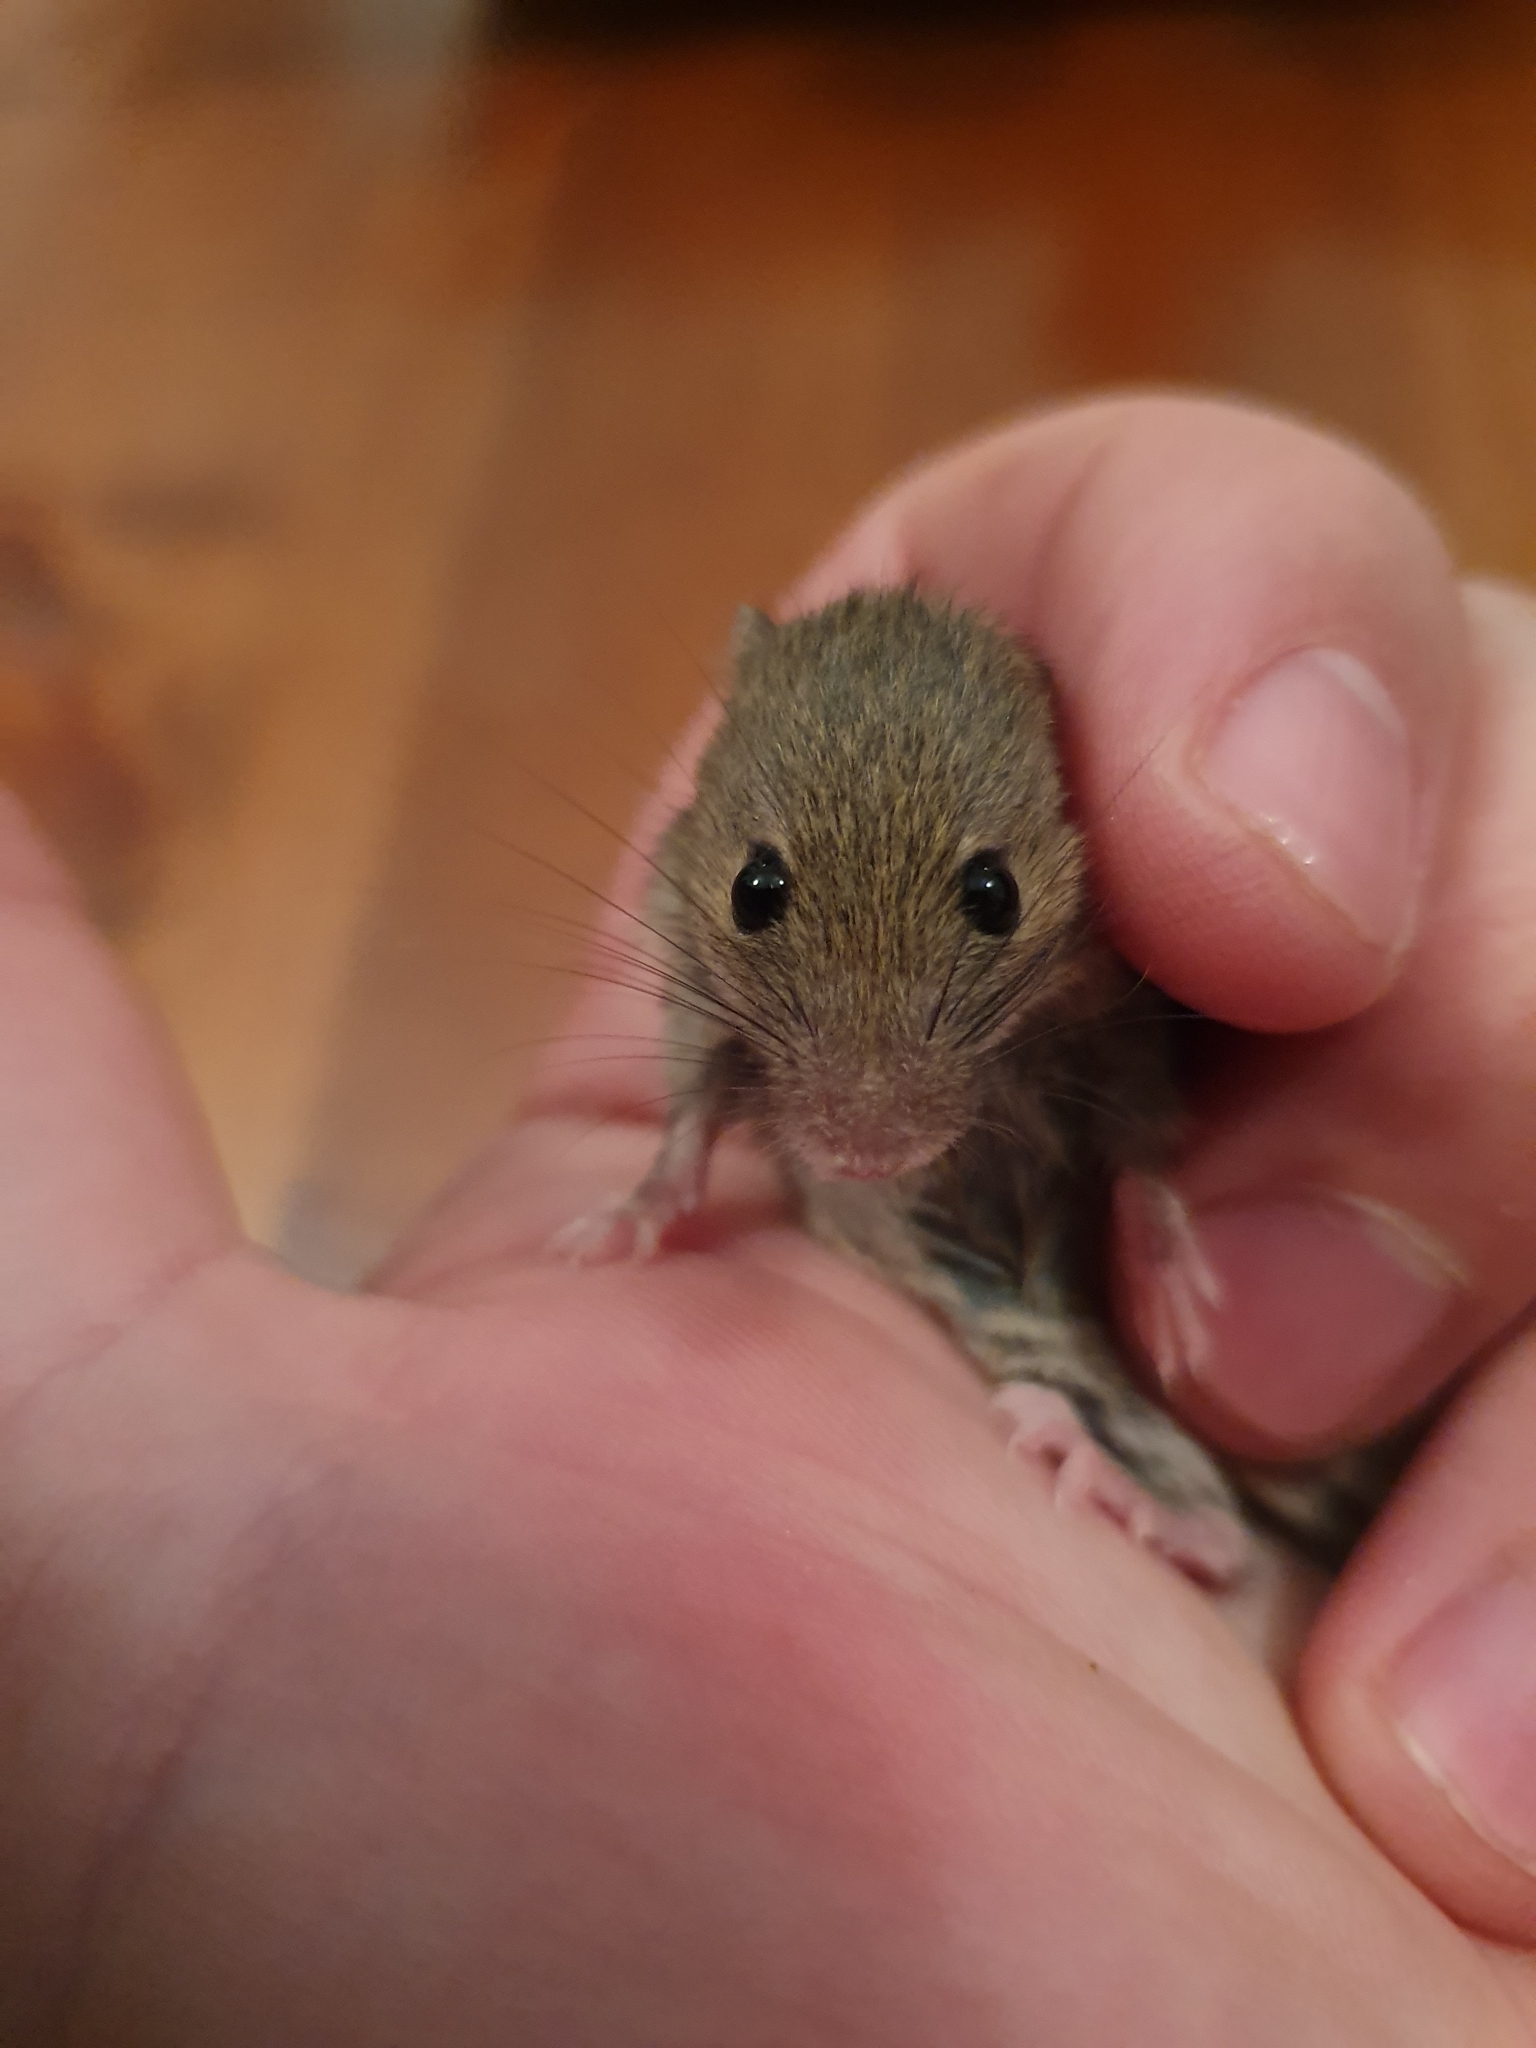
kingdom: Animalia
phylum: Chordata
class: Mammalia
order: Rodentia
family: Muridae
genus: Mus
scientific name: Mus musculus
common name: House mouse
